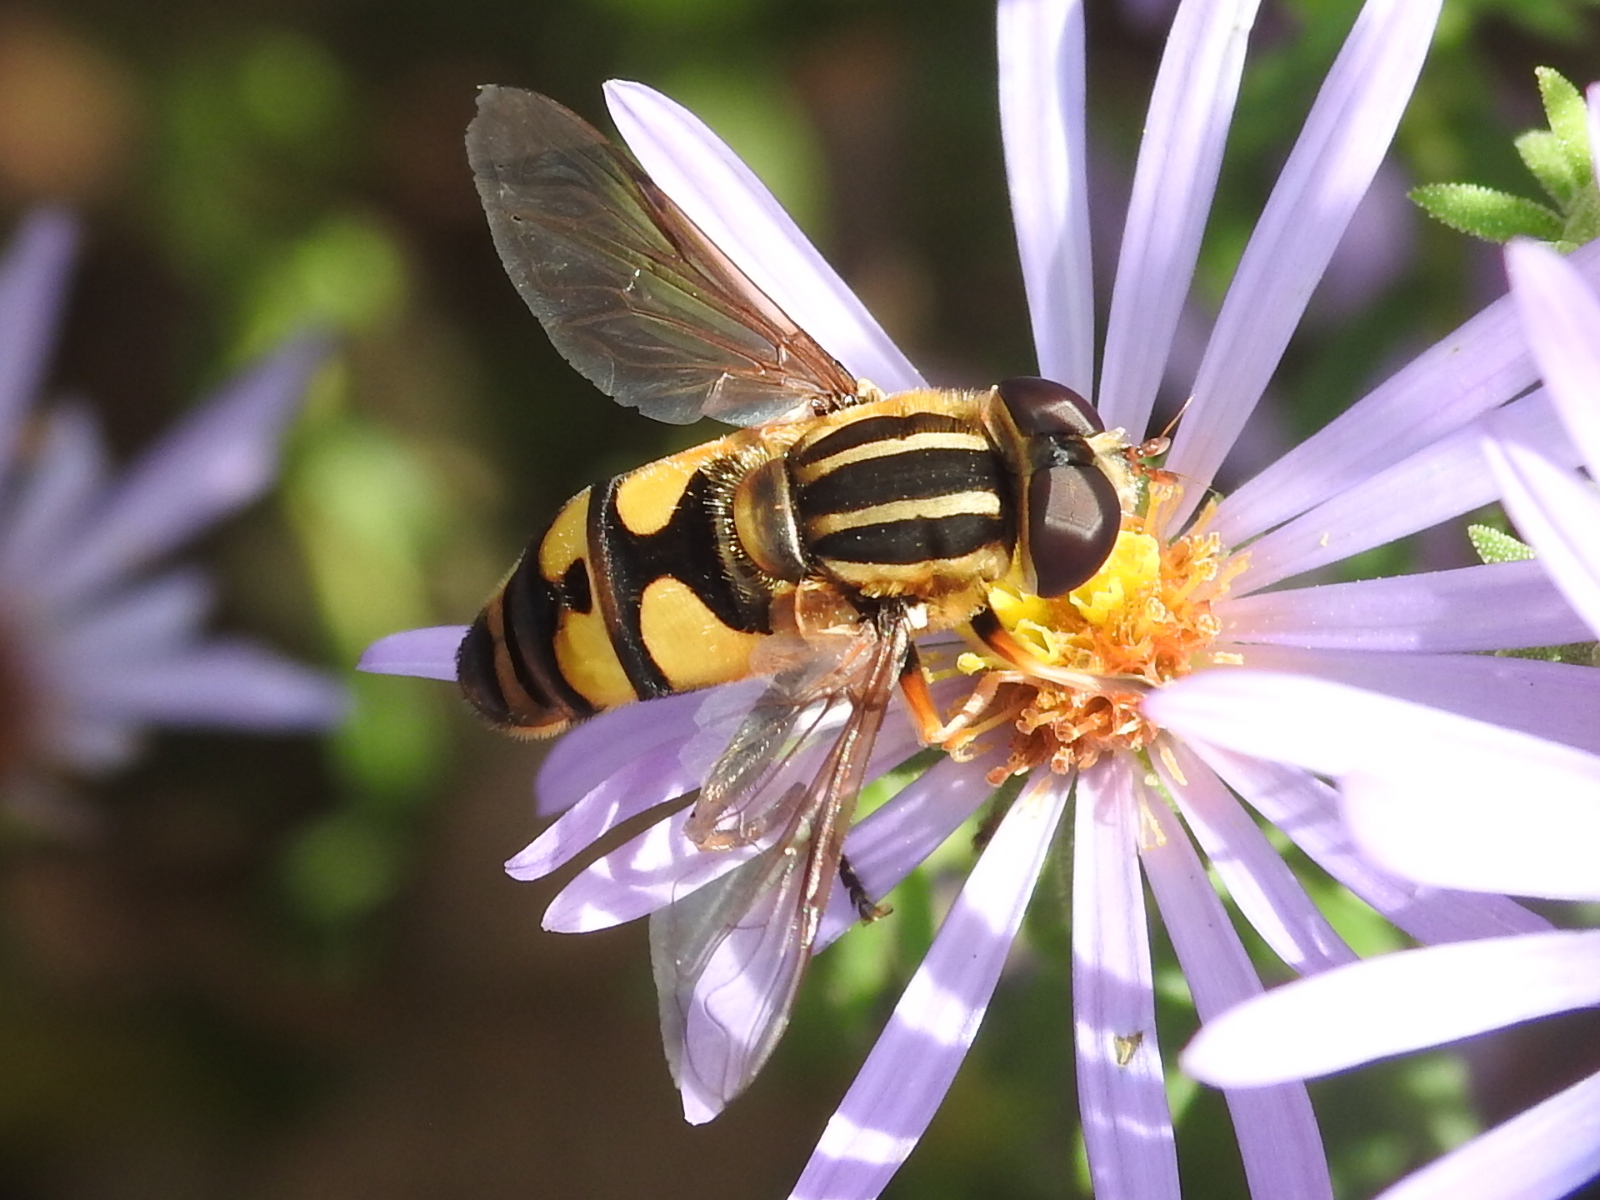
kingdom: Animalia
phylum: Arthropoda
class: Insecta
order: Diptera
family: Syrphidae
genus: Helophilus
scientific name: Helophilus fasciatus
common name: Narrow-headed marsh fly
